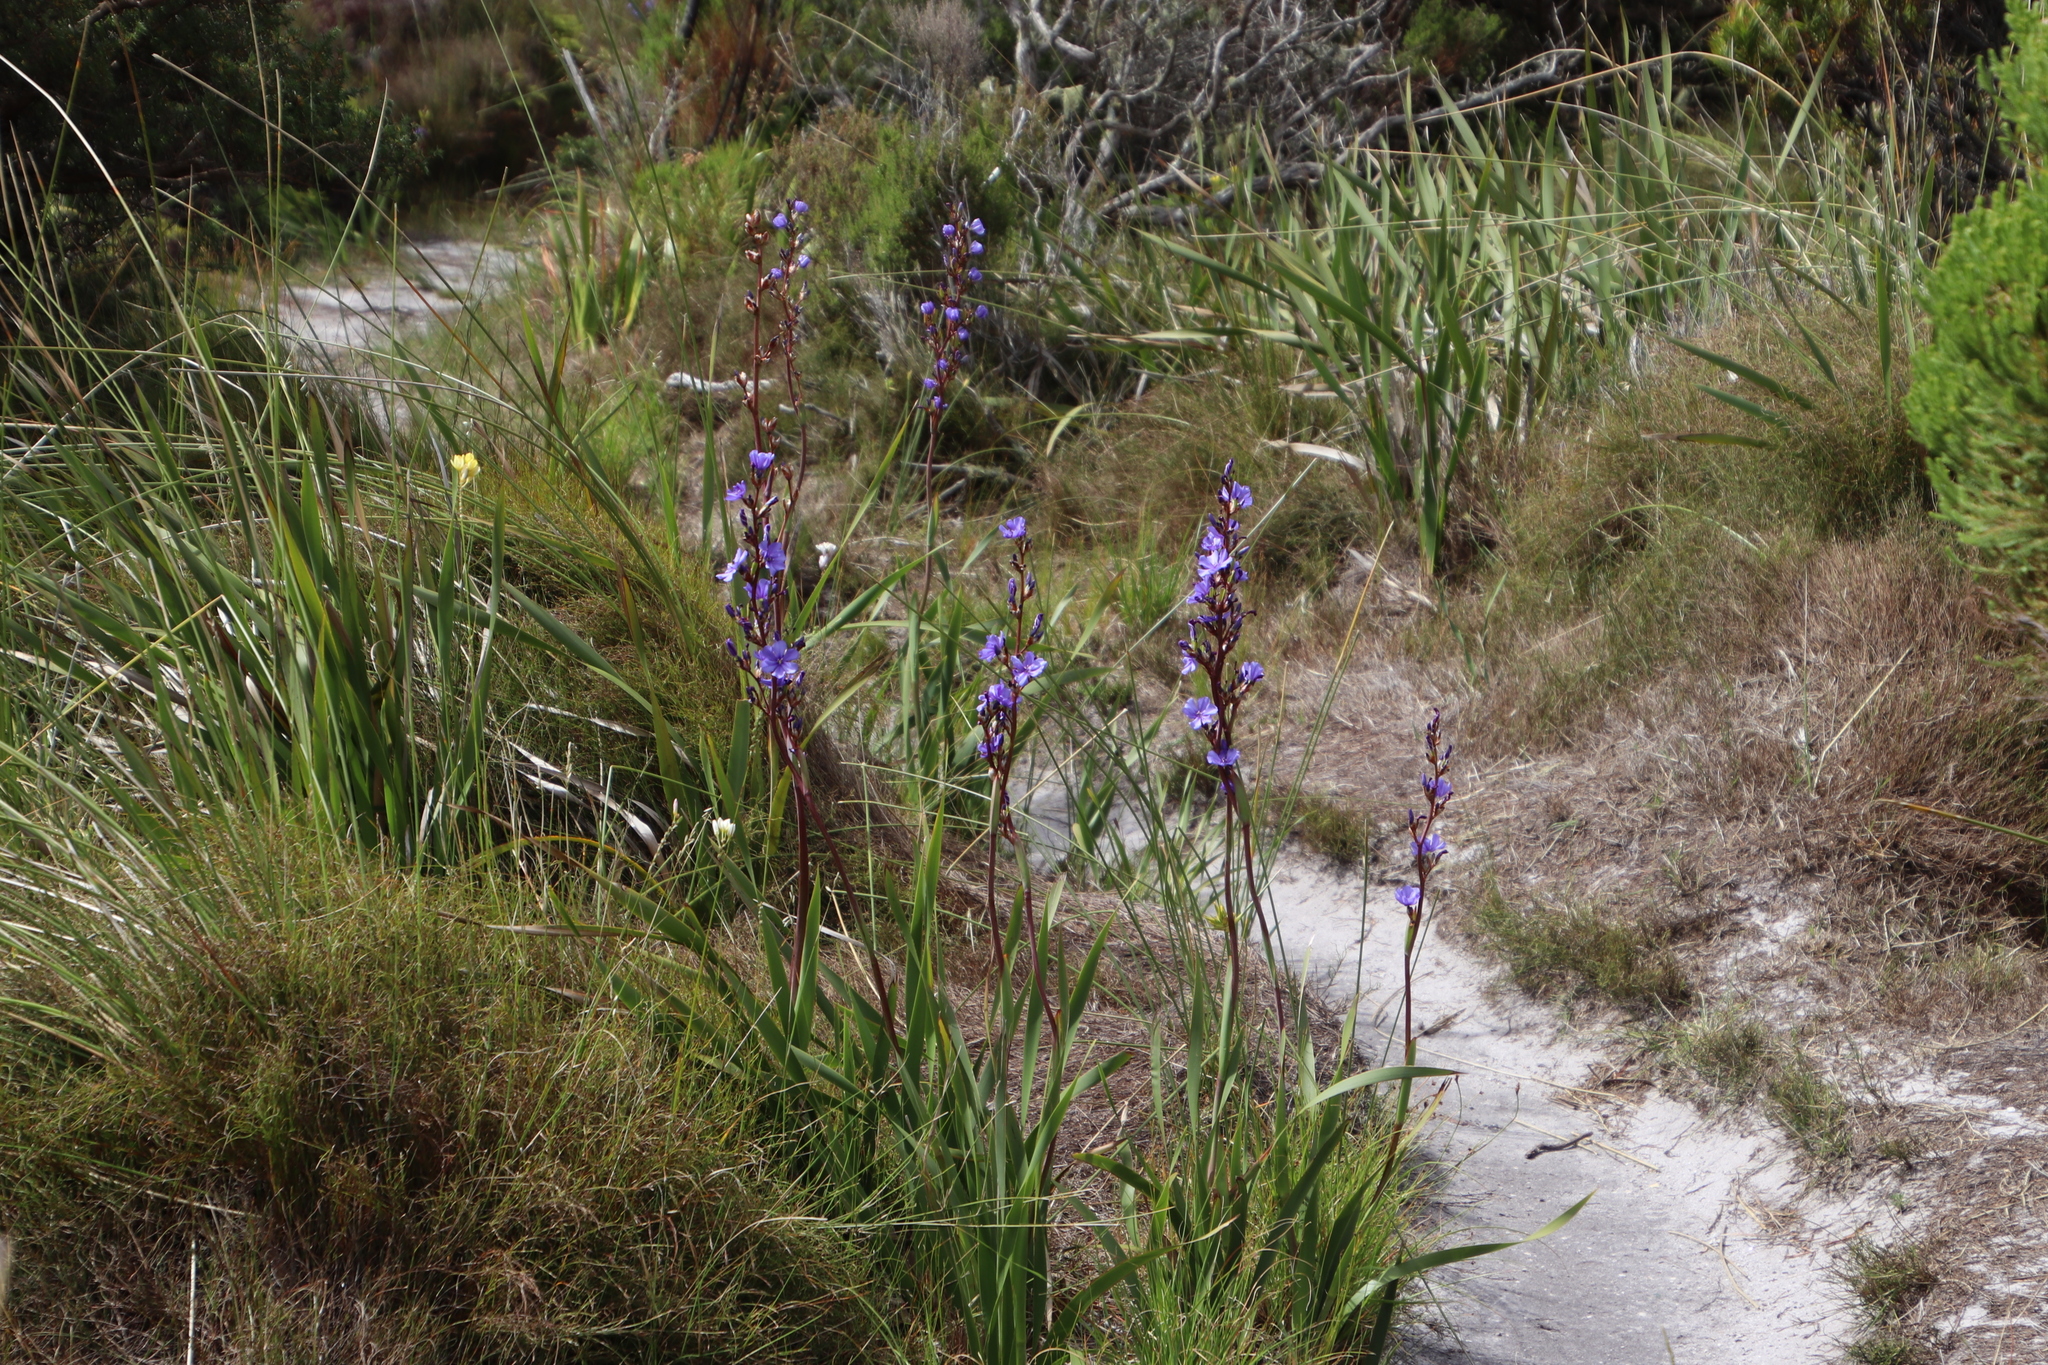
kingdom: Plantae
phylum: Tracheophyta
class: Liliopsida
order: Asparagales
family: Iridaceae
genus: Aristea
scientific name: Aristea bakeri
